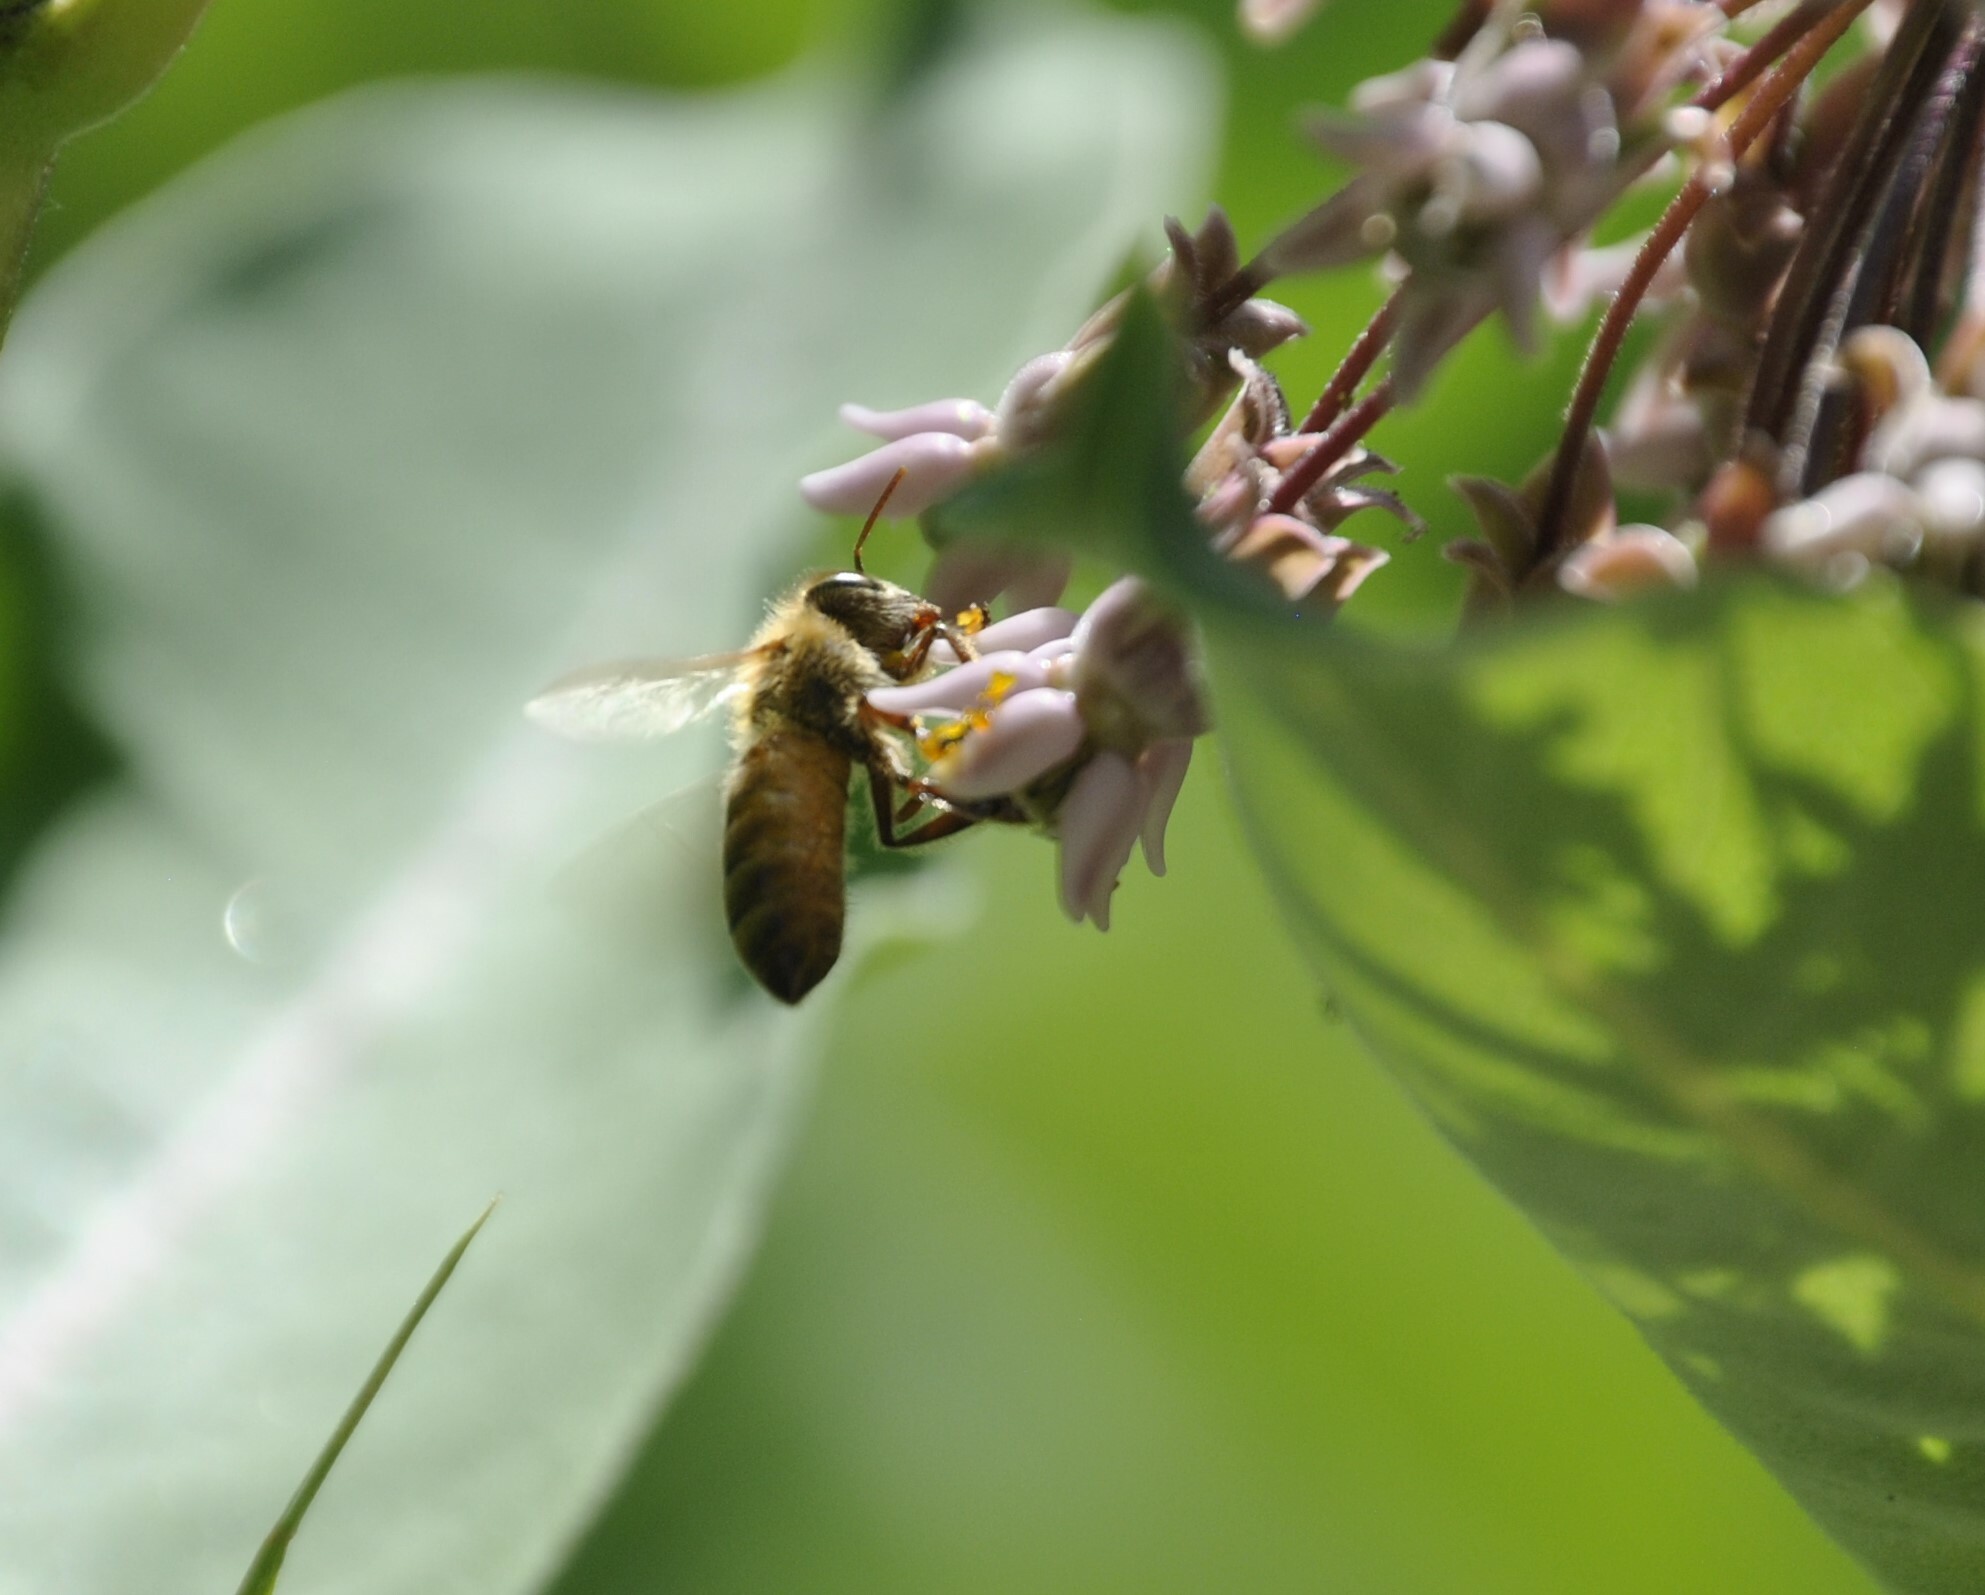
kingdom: Animalia
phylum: Arthropoda
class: Insecta
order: Hymenoptera
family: Apidae
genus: Apis
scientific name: Apis mellifera
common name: Honey bee
